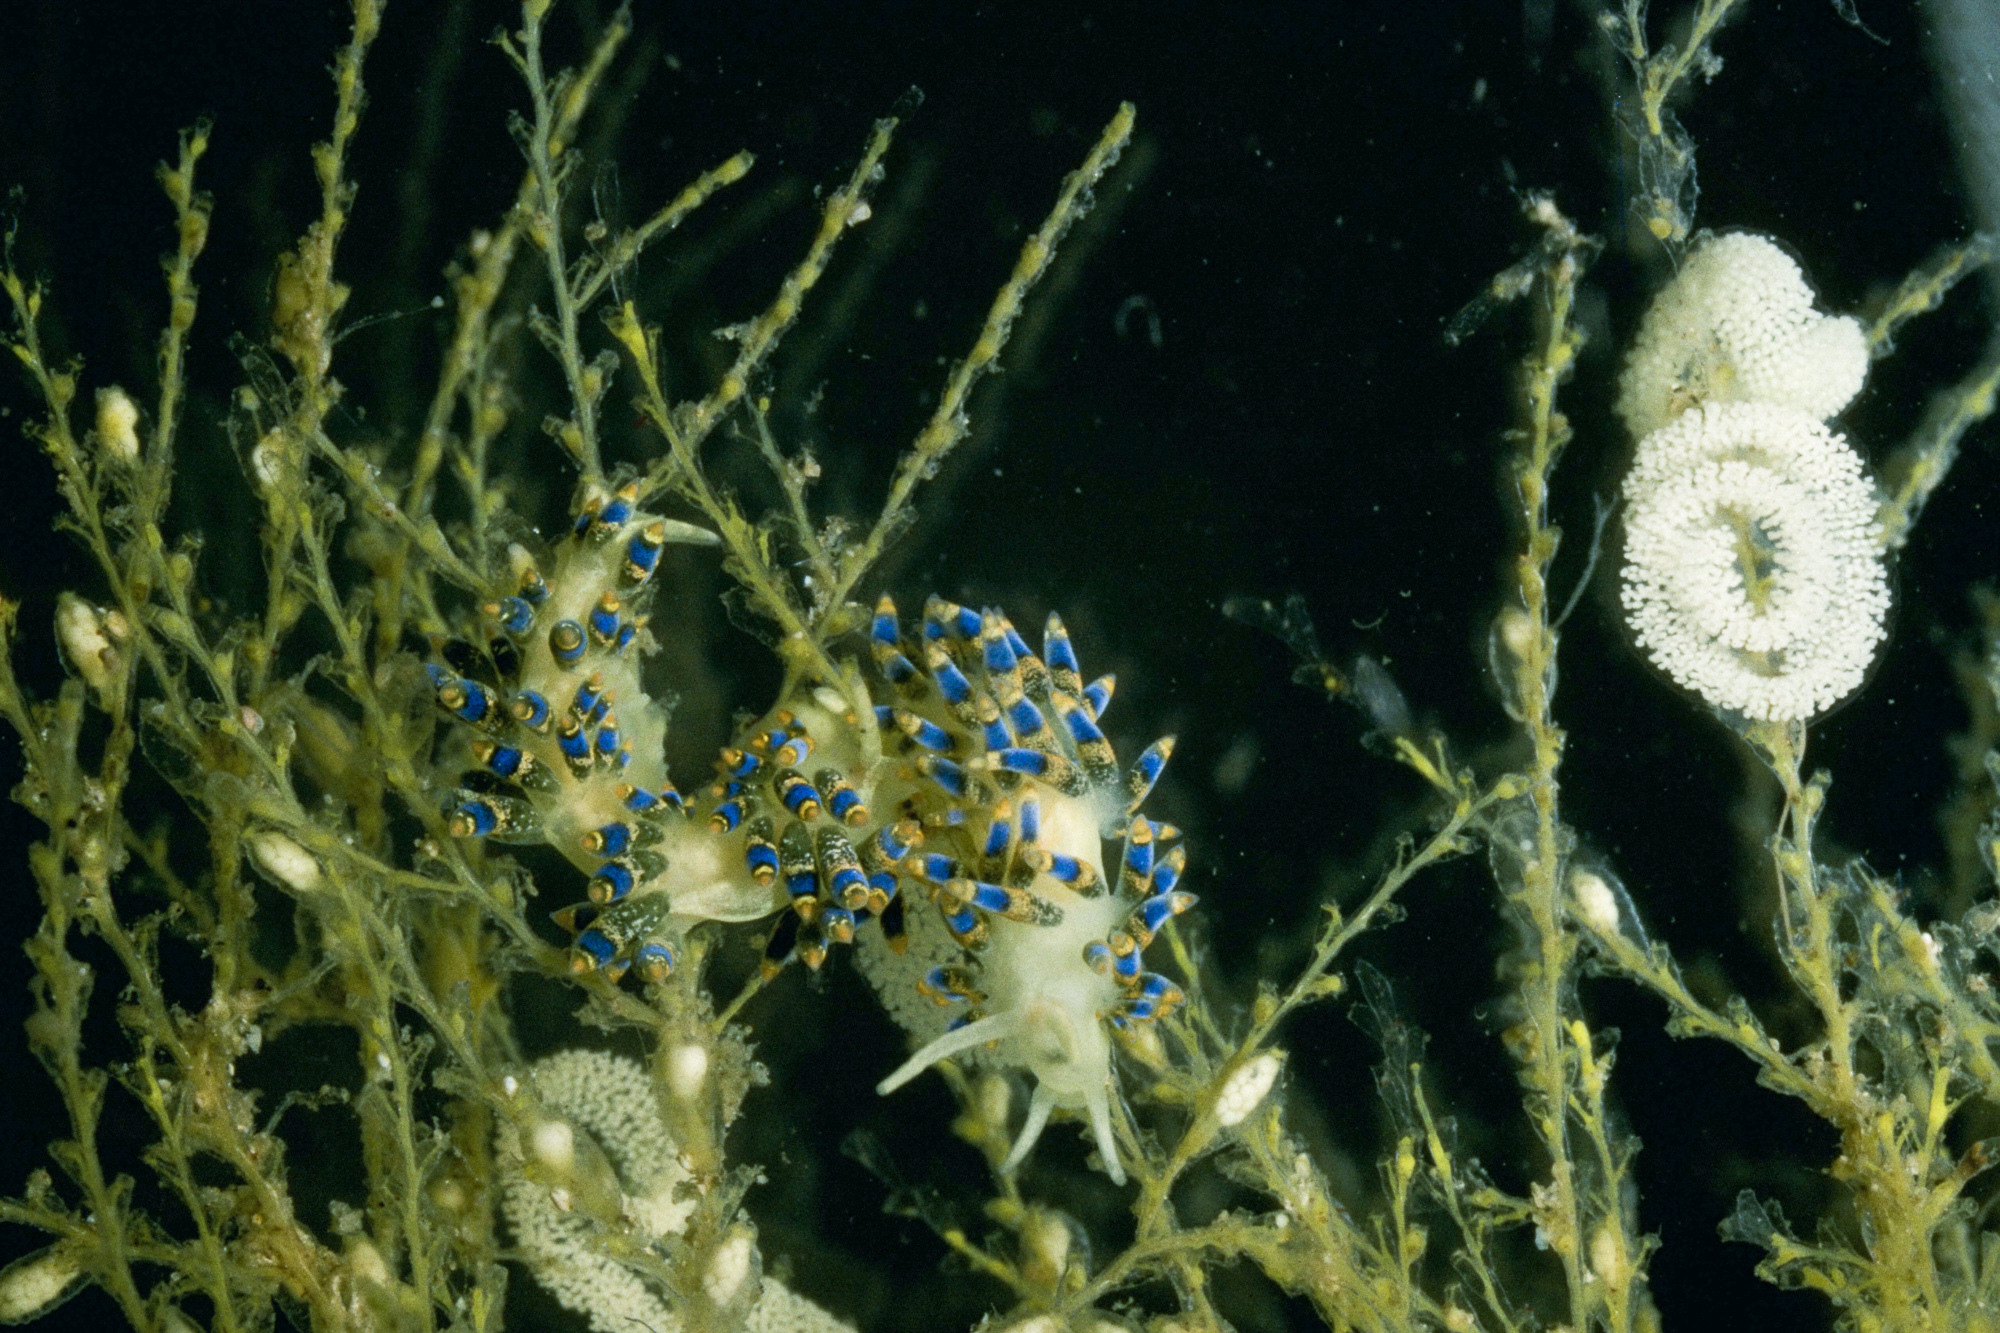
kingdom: Animalia
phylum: Mollusca
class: Gastropoda
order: Nudibranchia
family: Trinchesiidae
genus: Trinchesia
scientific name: Trinchesia cuanensis
